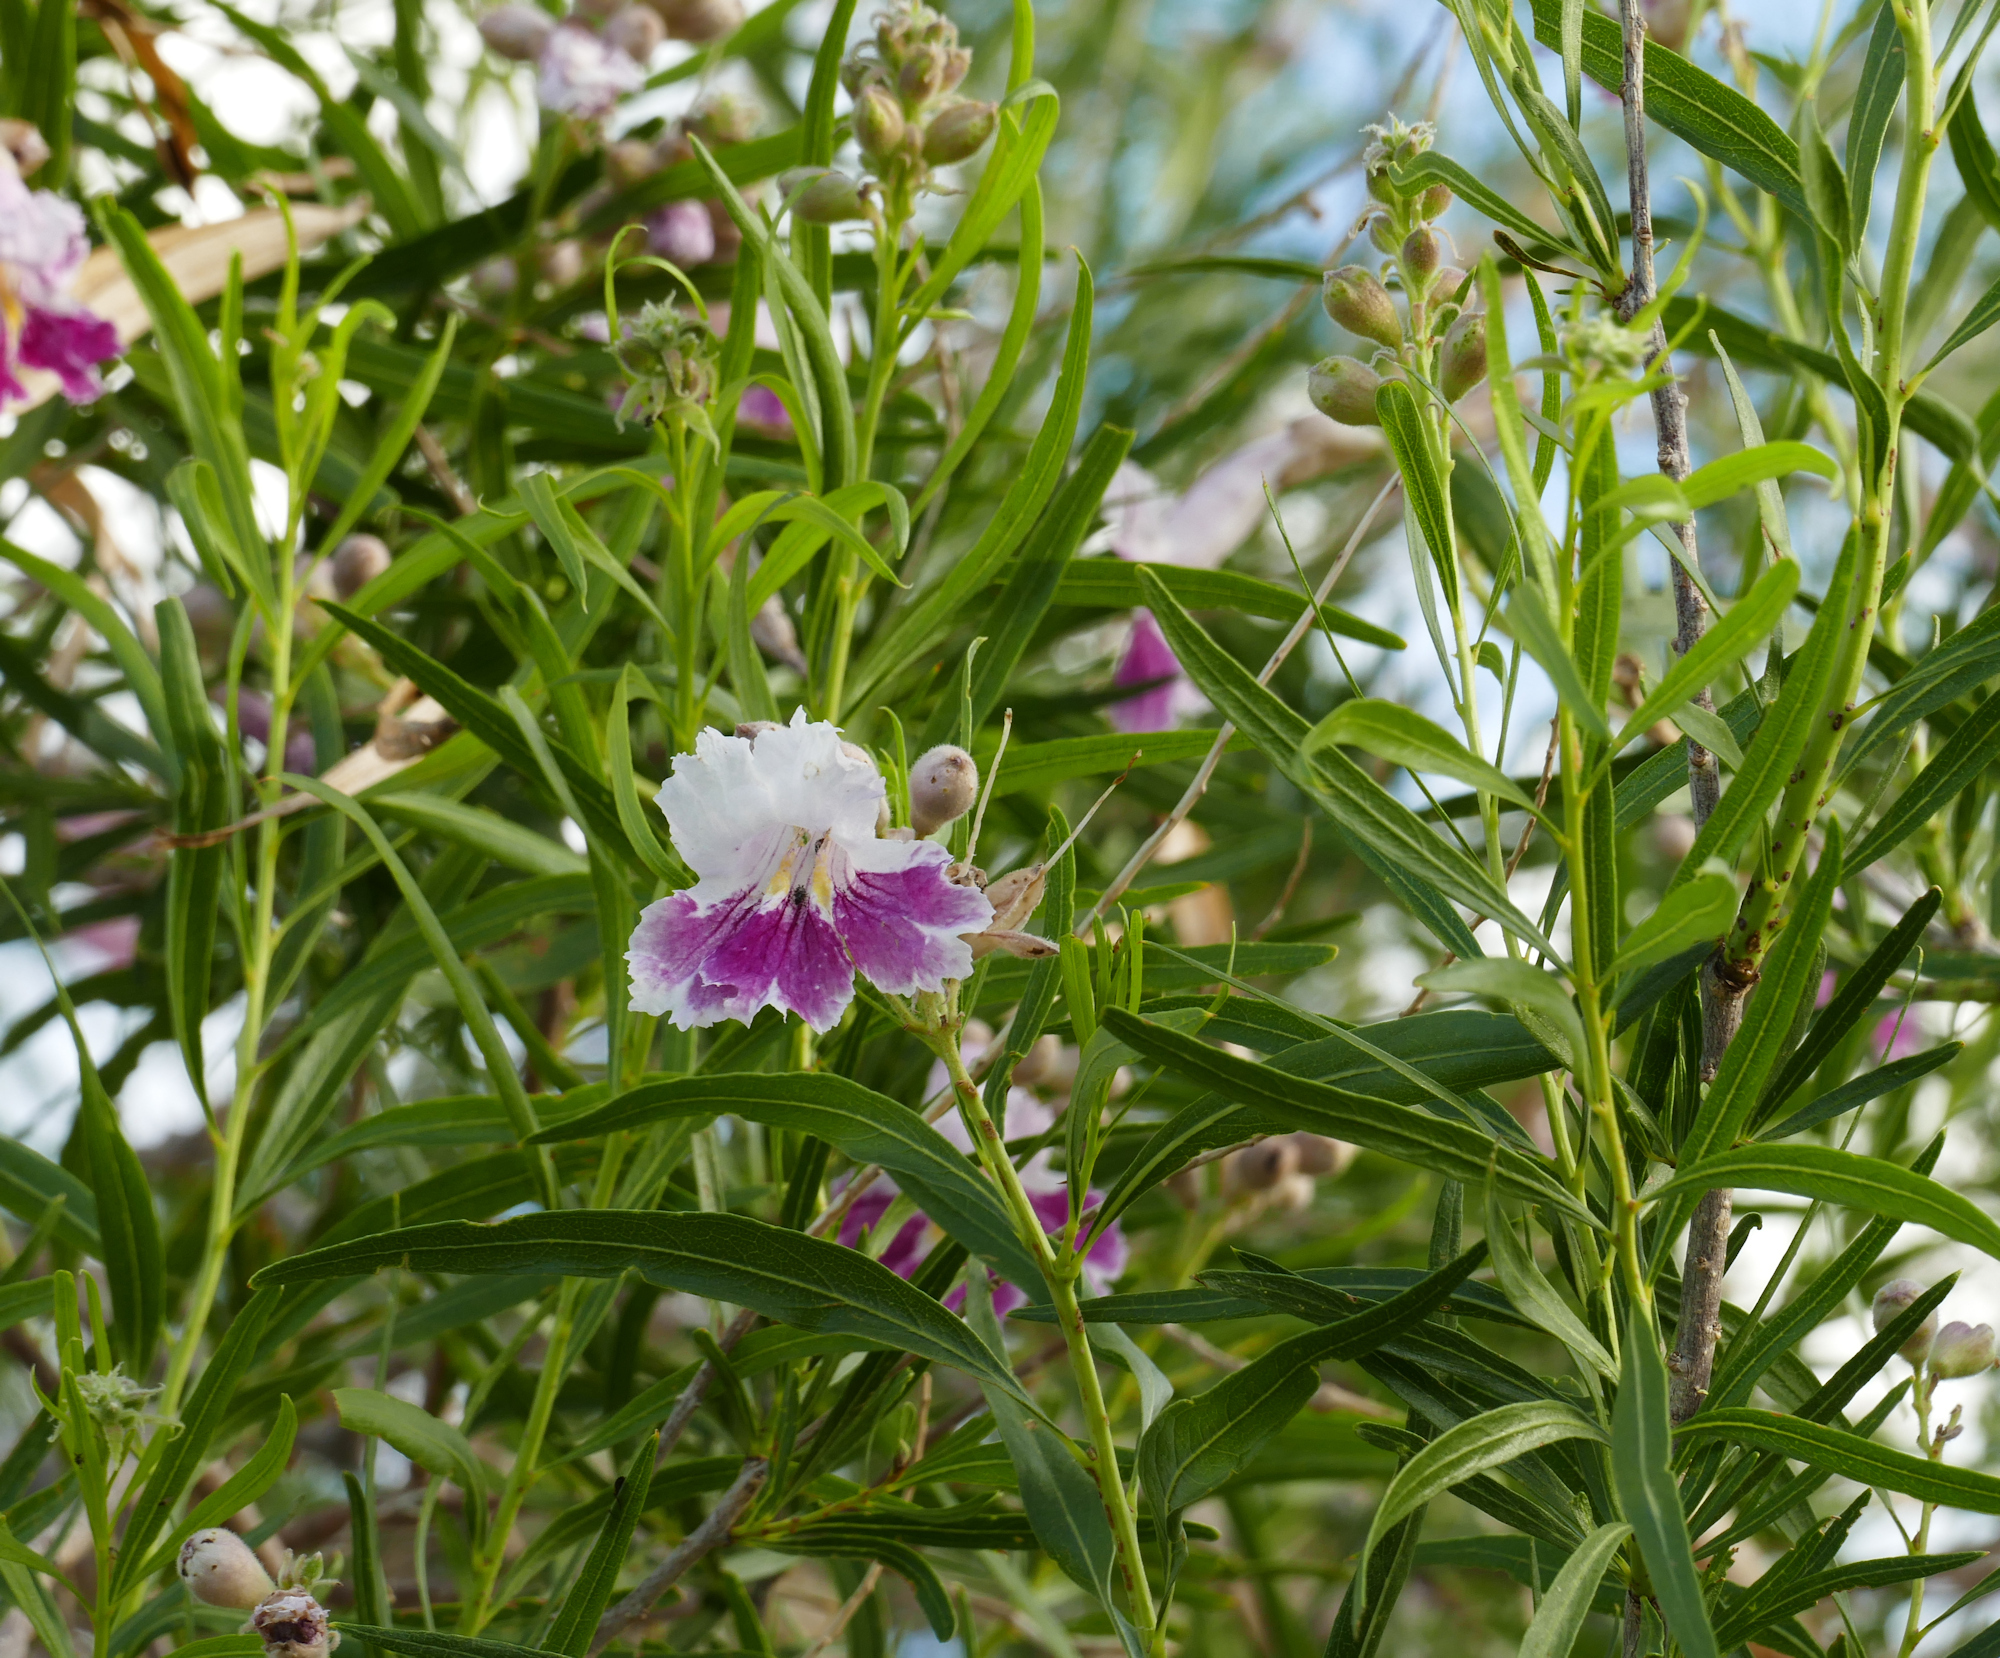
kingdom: Plantae
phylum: Tracheophyta
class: Magnoliopsida
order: Lamiales
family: Bignoniaceae
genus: Chilopsis
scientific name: Chilopsis linearis
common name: Desert-willow
